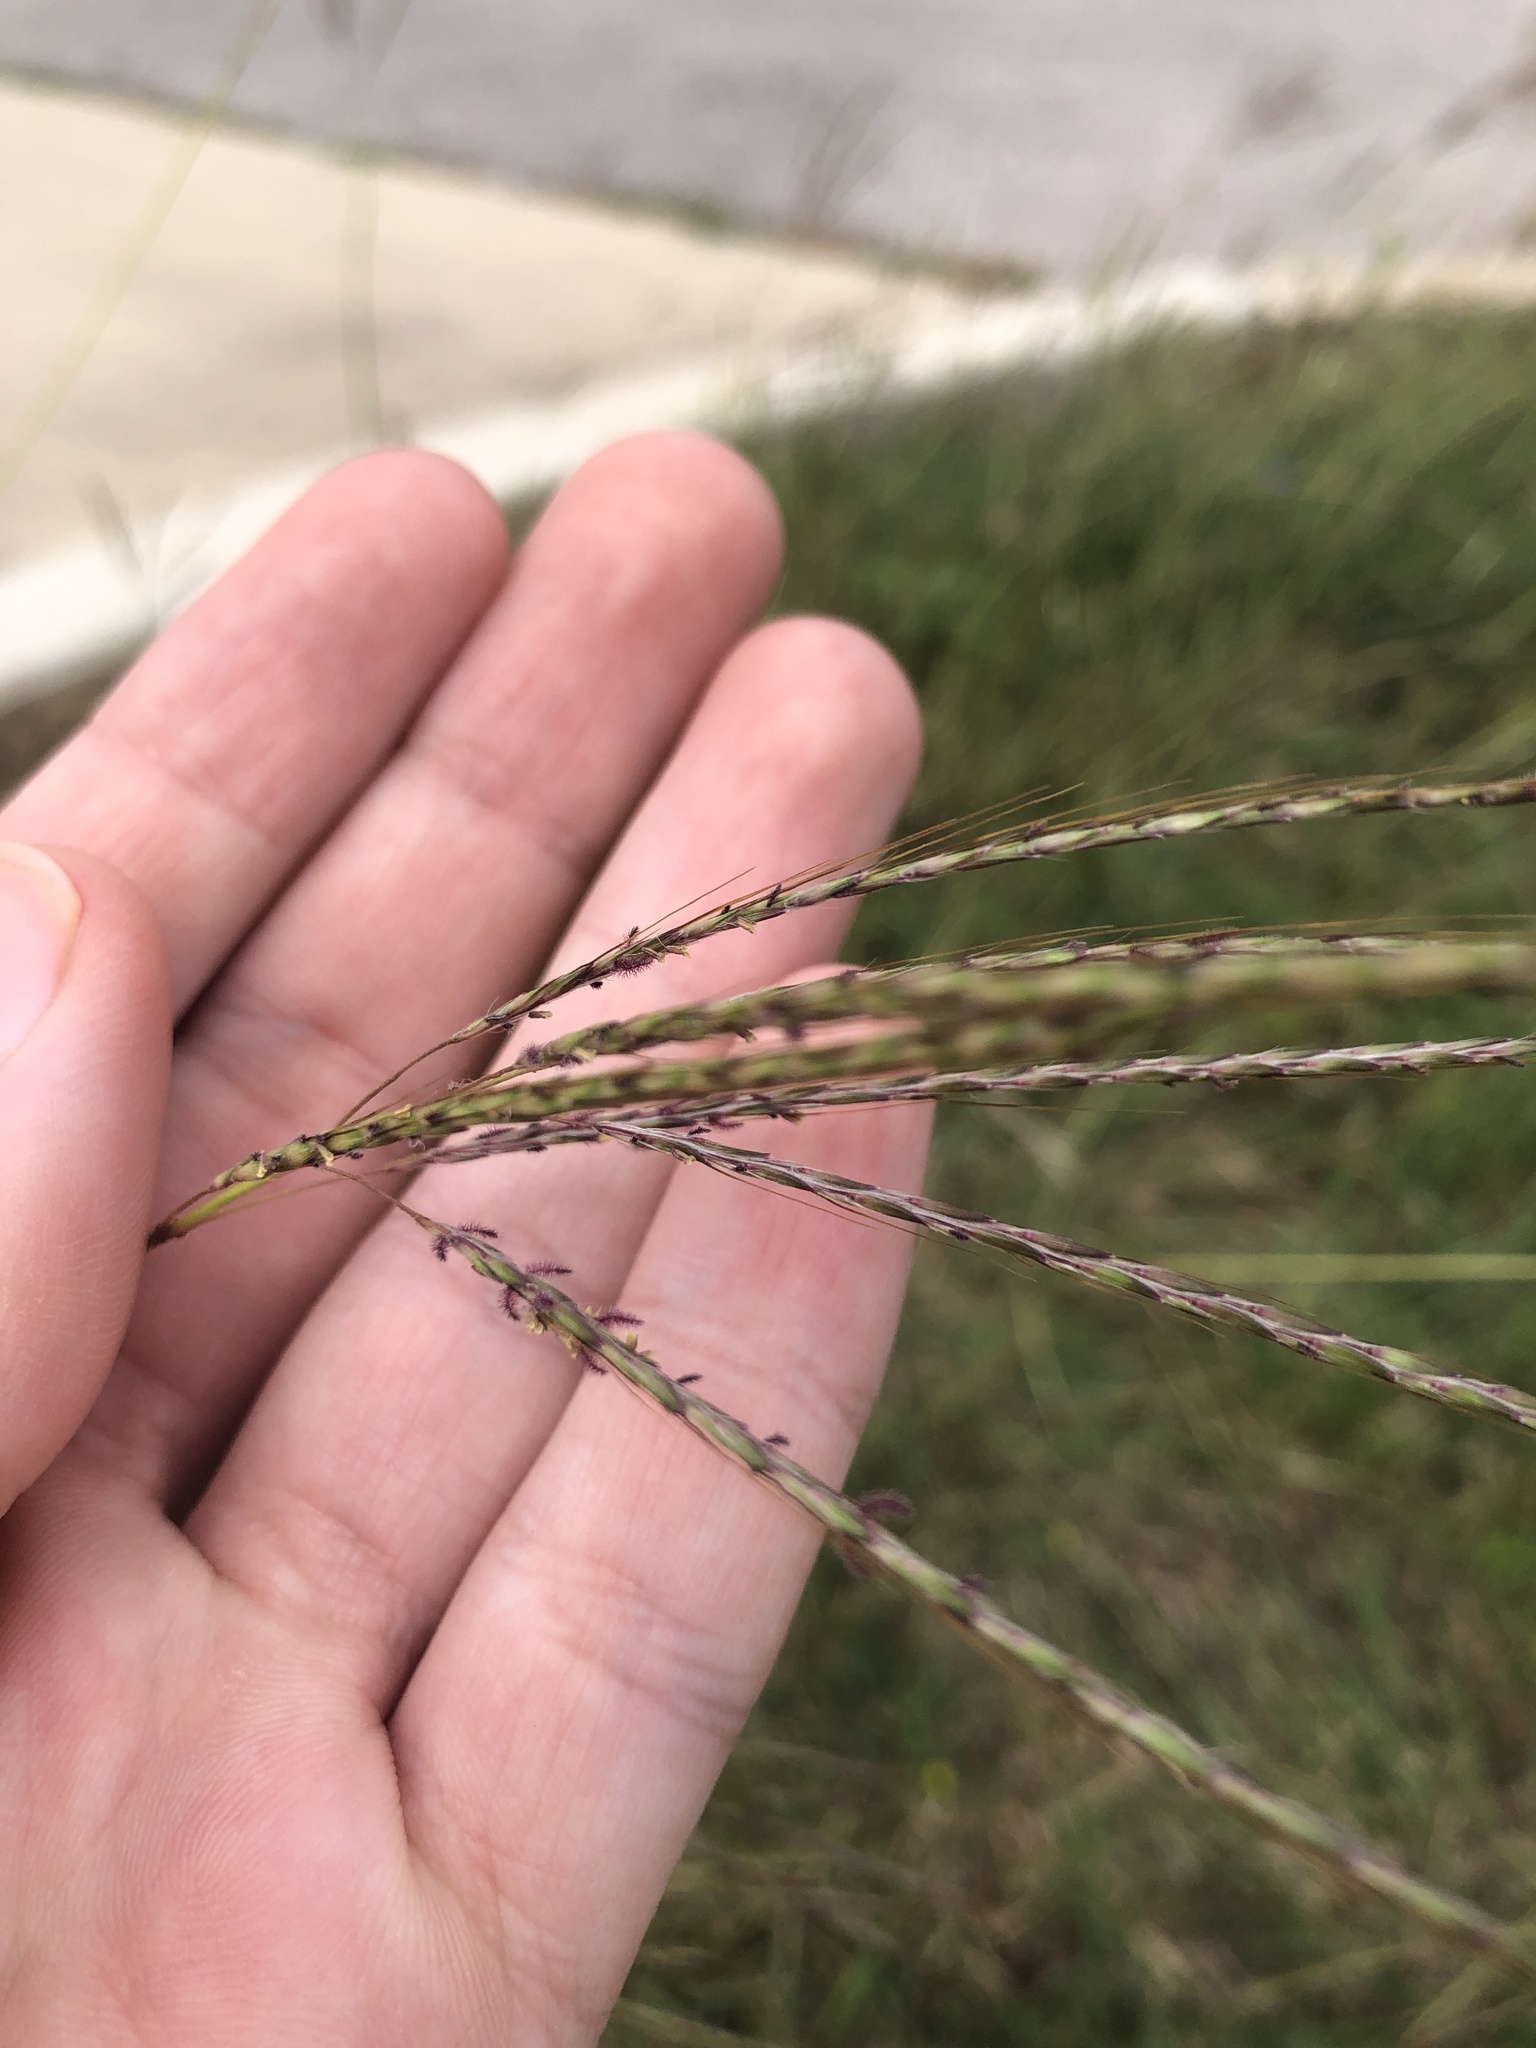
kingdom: Plantae
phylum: Tracheophyta
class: Liliopsida
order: Poales
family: Poaceae
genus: Bothriochloa
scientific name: Bothriochloa ischaemum
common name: Yellow bluestem
